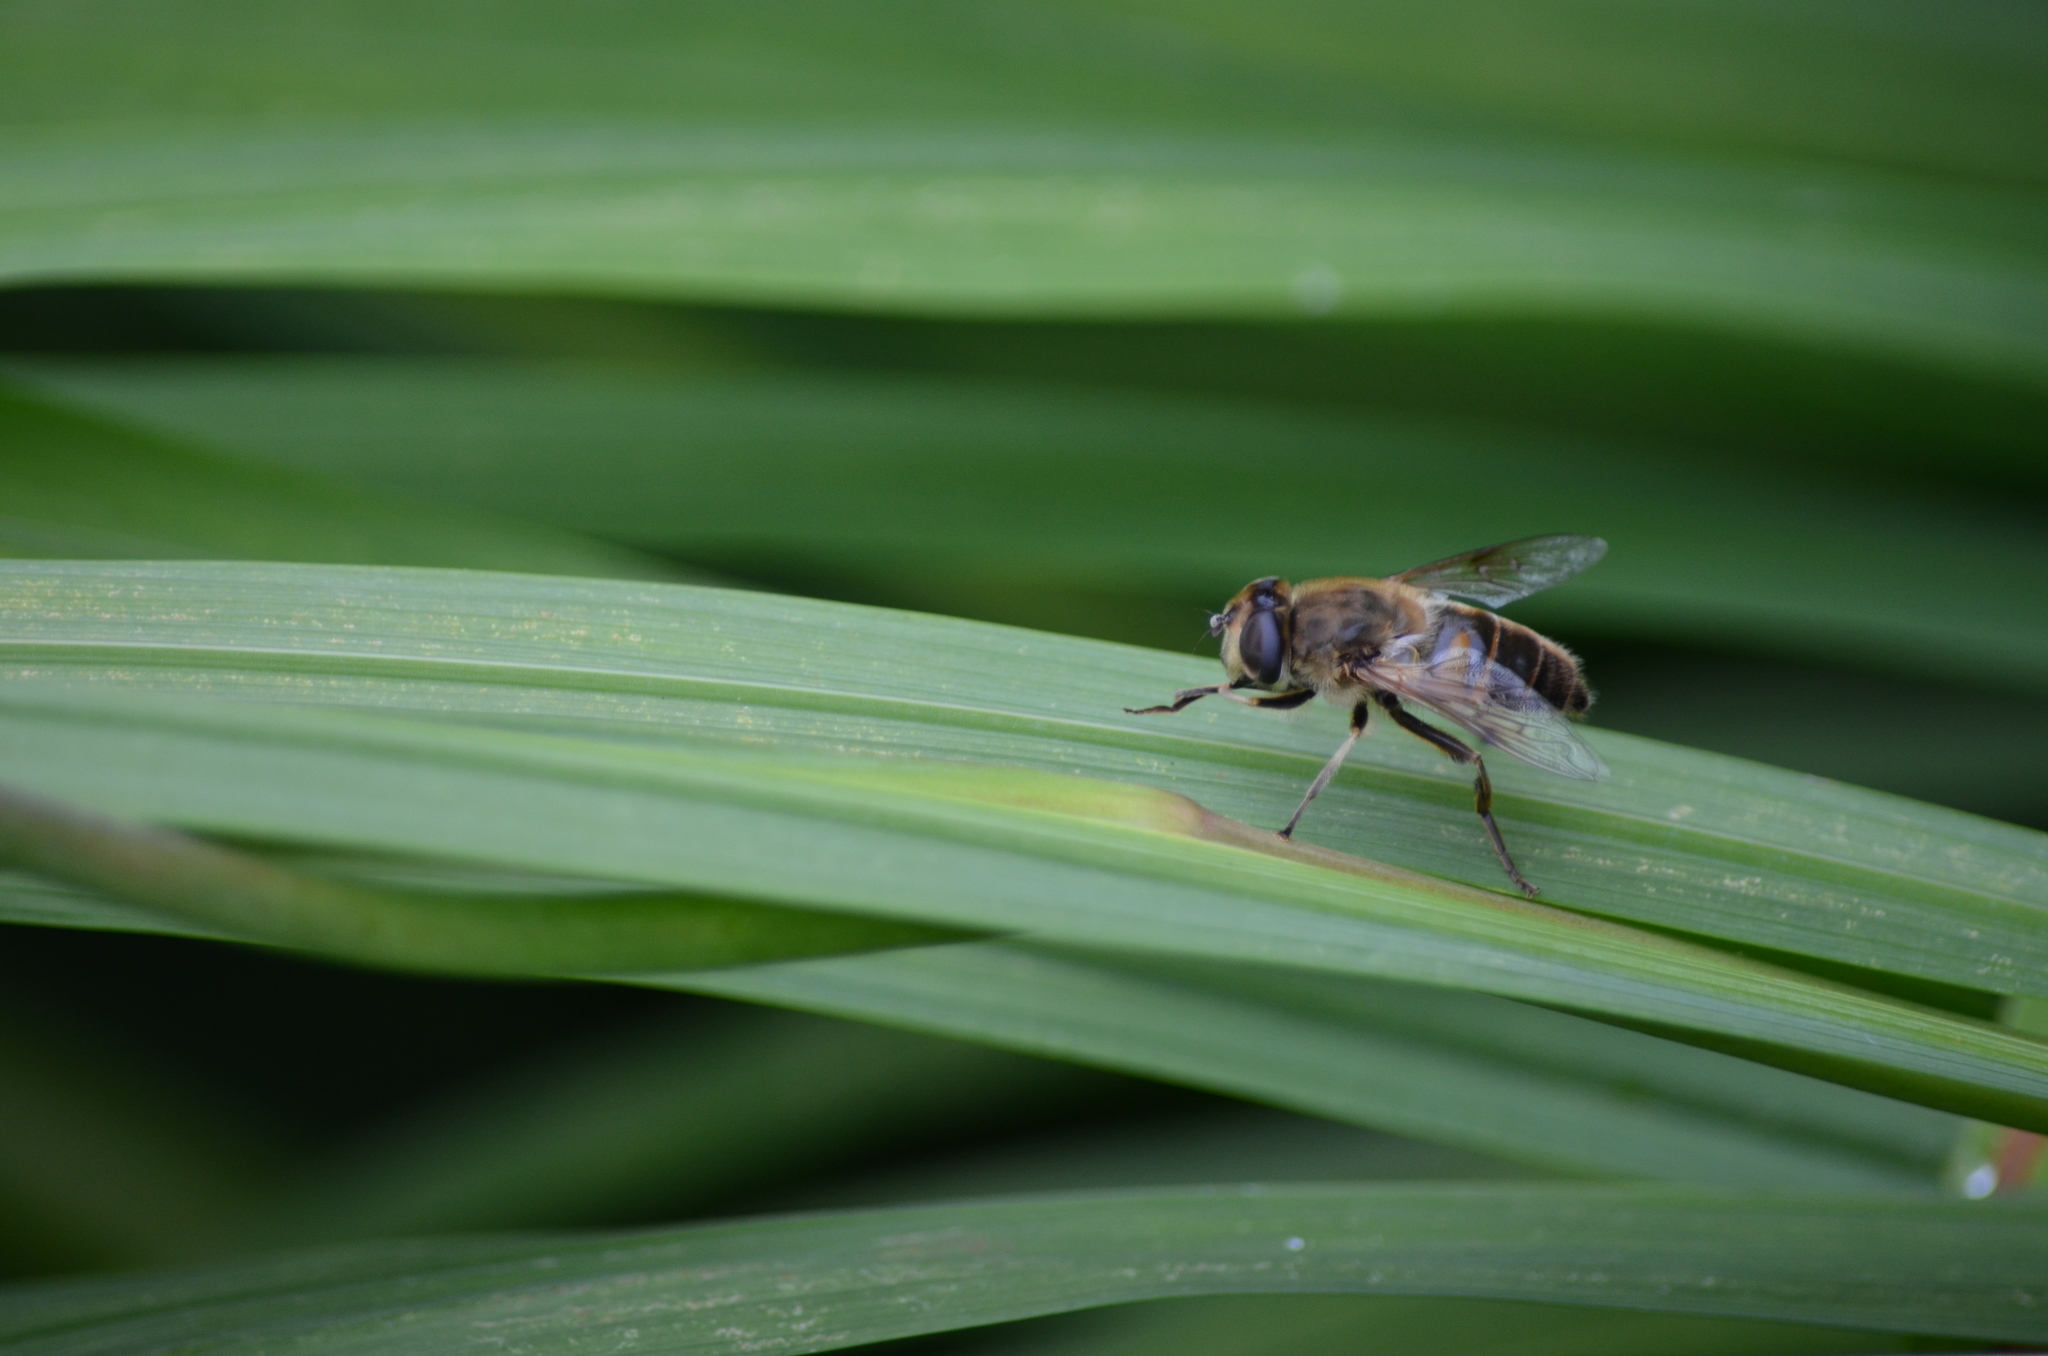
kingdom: Animalia
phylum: Arthropoda
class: Insecta
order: Diptera
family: Syrphidae
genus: Eristalis
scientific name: Eristalis tenax
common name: Drone fly
